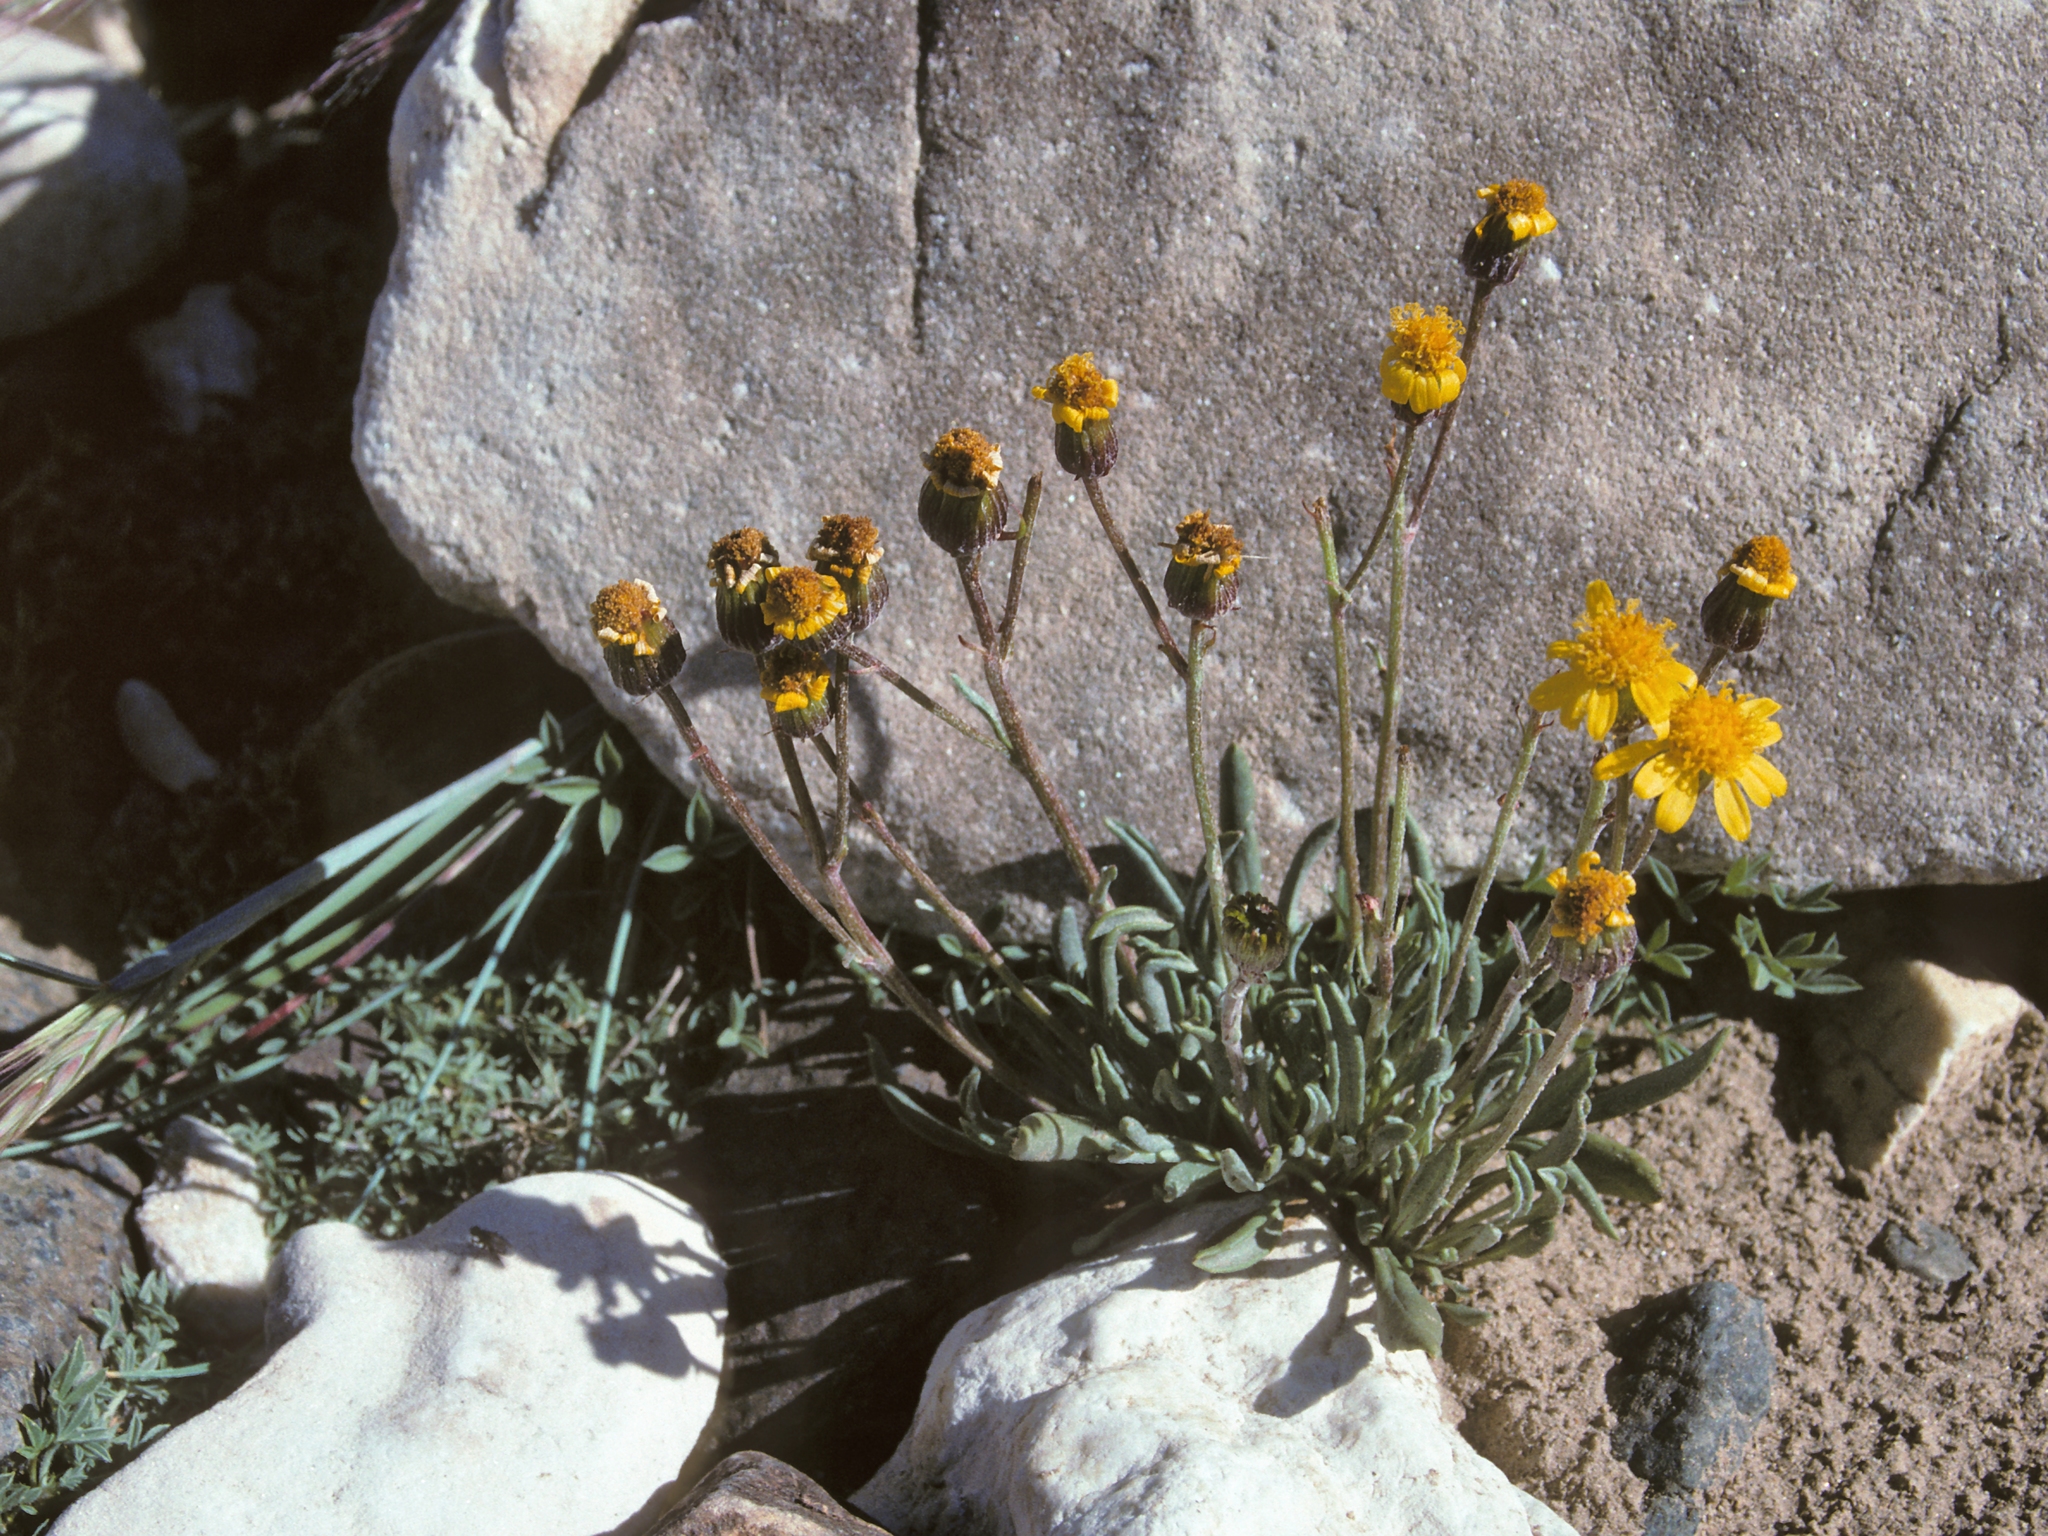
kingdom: Plantae
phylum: Tracheophyta
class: Magnoliopsida
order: Asterales
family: Asteraceae
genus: Packera
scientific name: Packera werneriifolia
